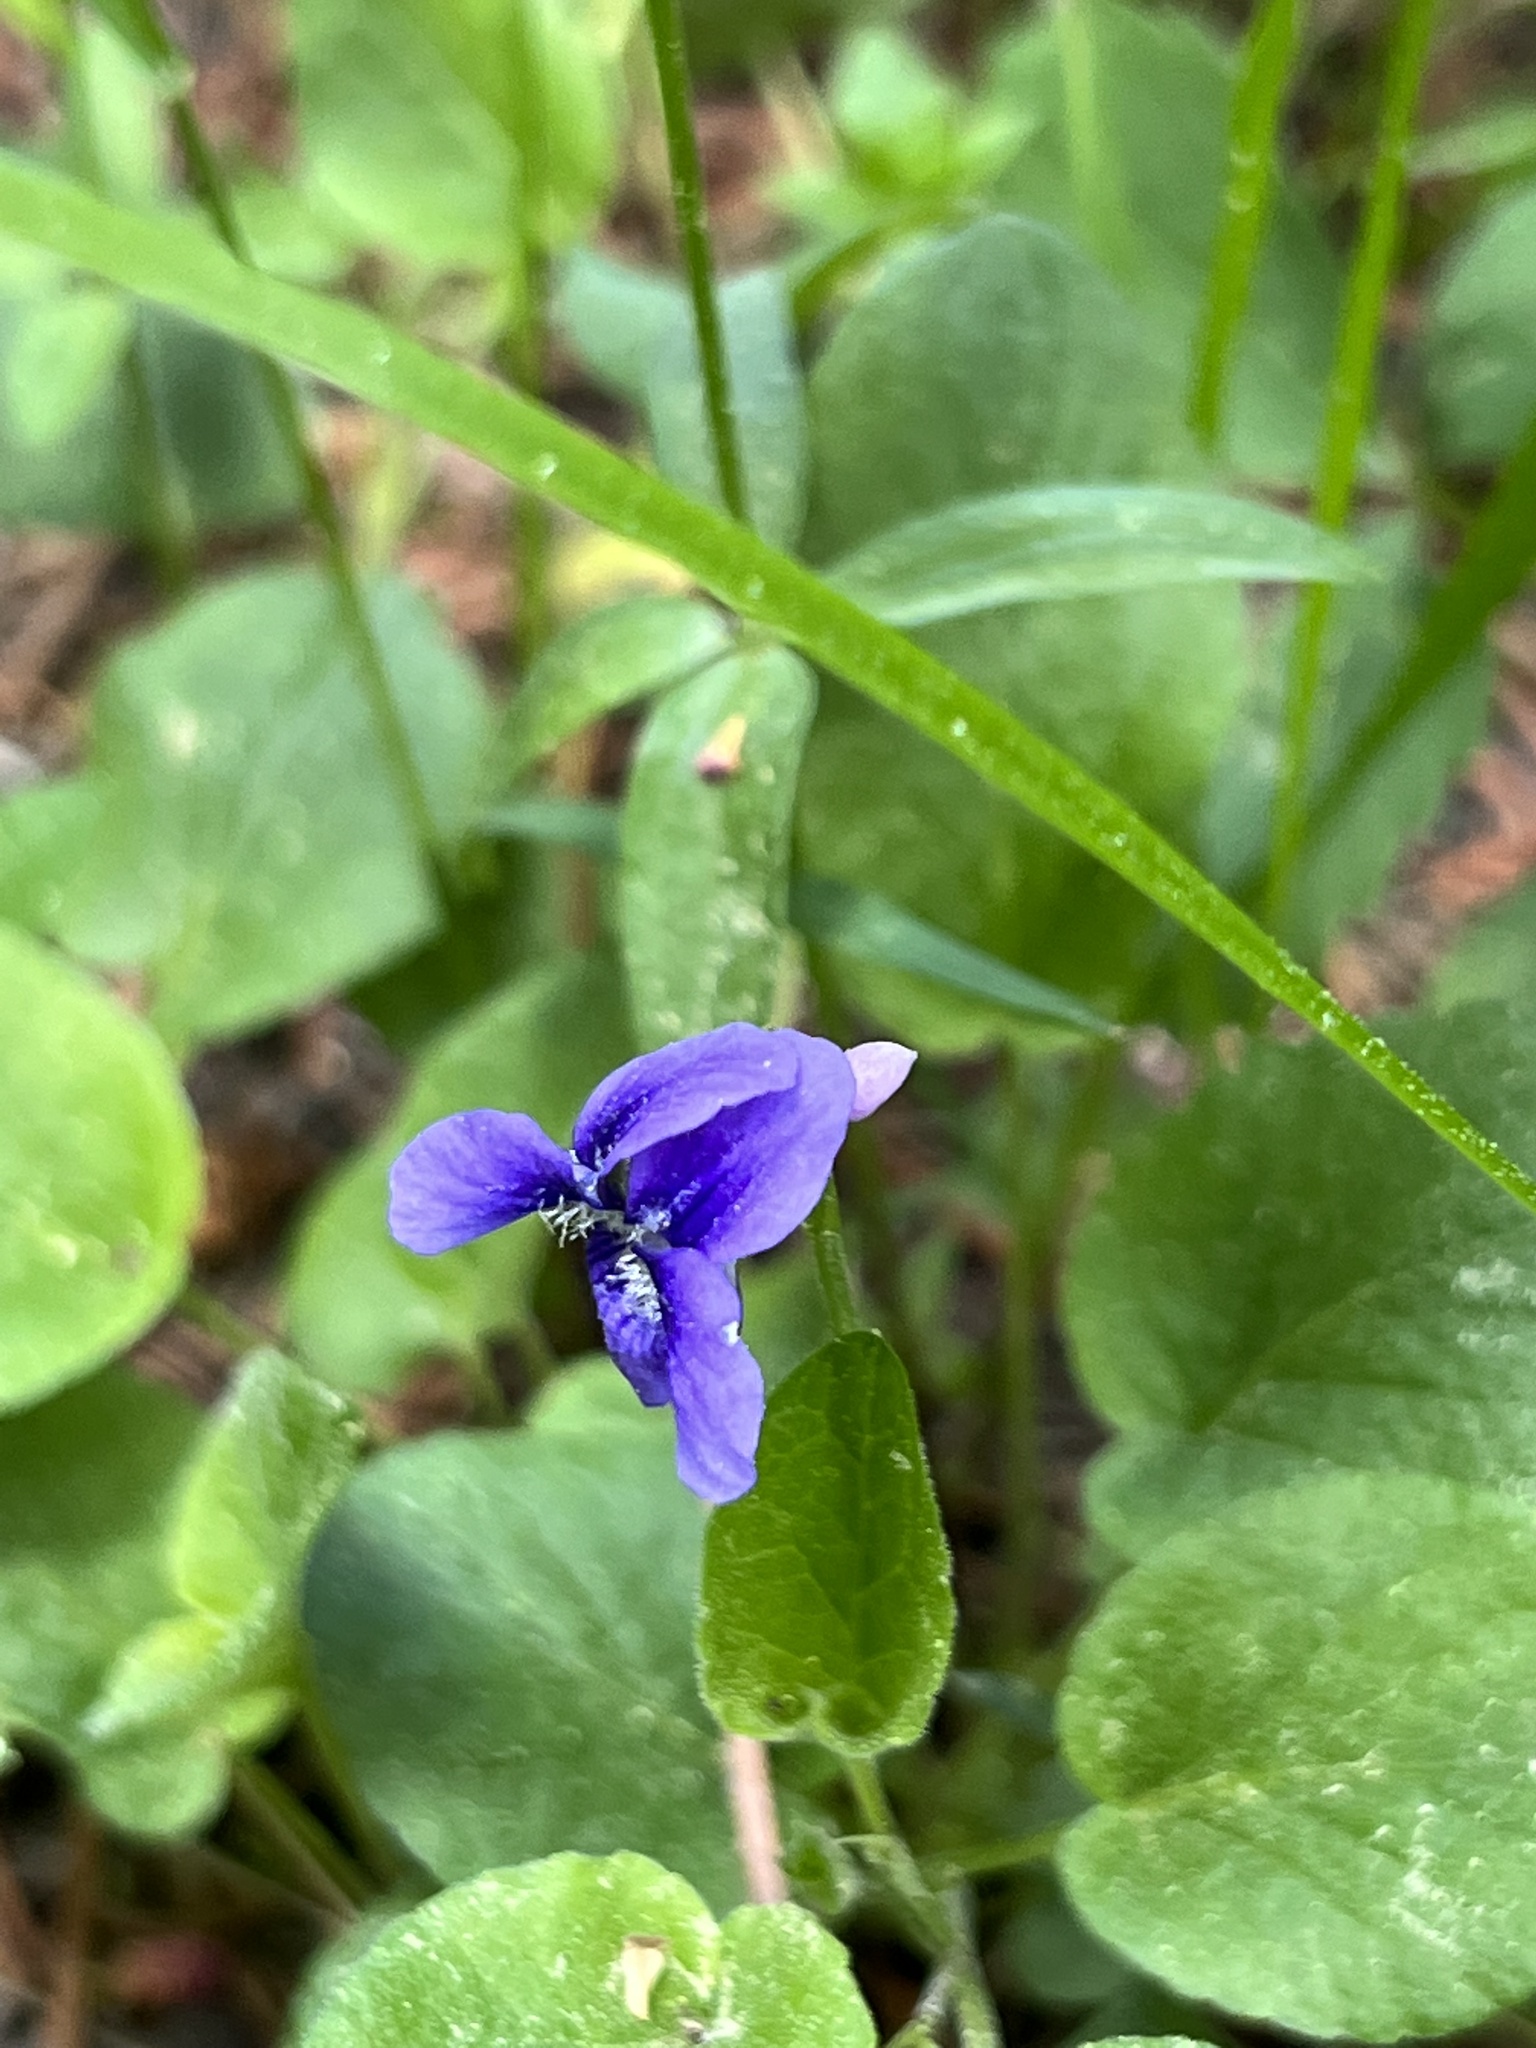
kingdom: Plantae
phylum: Tracheophyta
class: Magnoliopsida
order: Malpighiales
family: Violaceae
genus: Viola
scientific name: Viola adunca
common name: Sand violet
